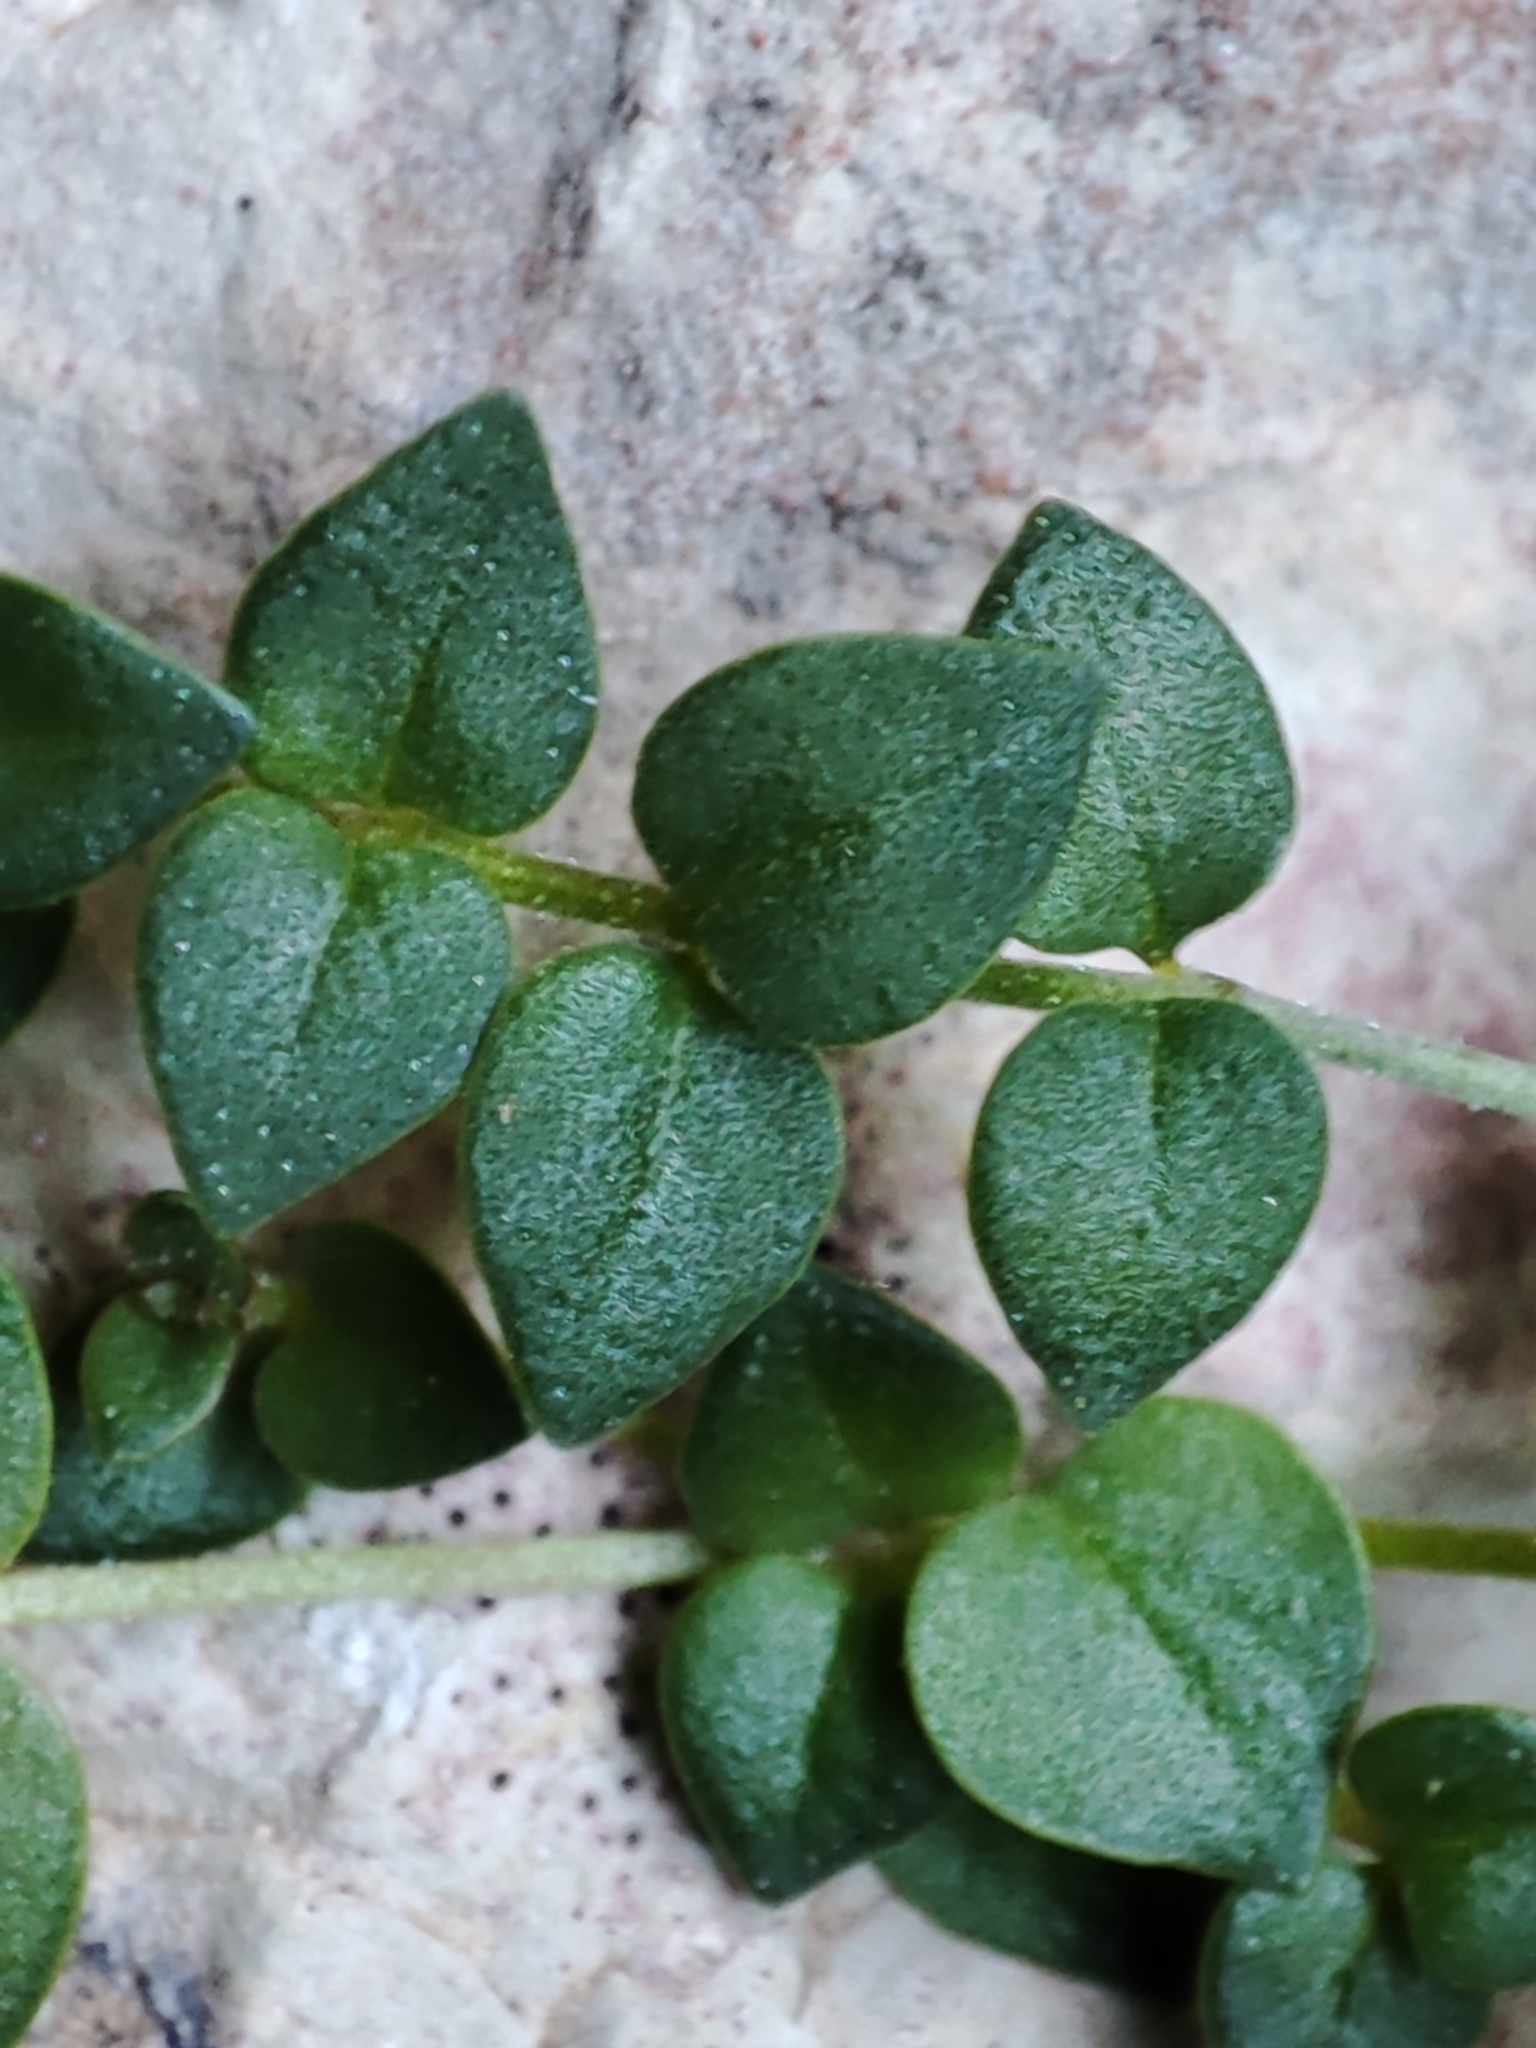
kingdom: Plantae
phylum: Tracheophyta
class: Magnoliopsida
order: Lamiales
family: Lamiaceae
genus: Micromeria
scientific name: Micromeria filiformis
